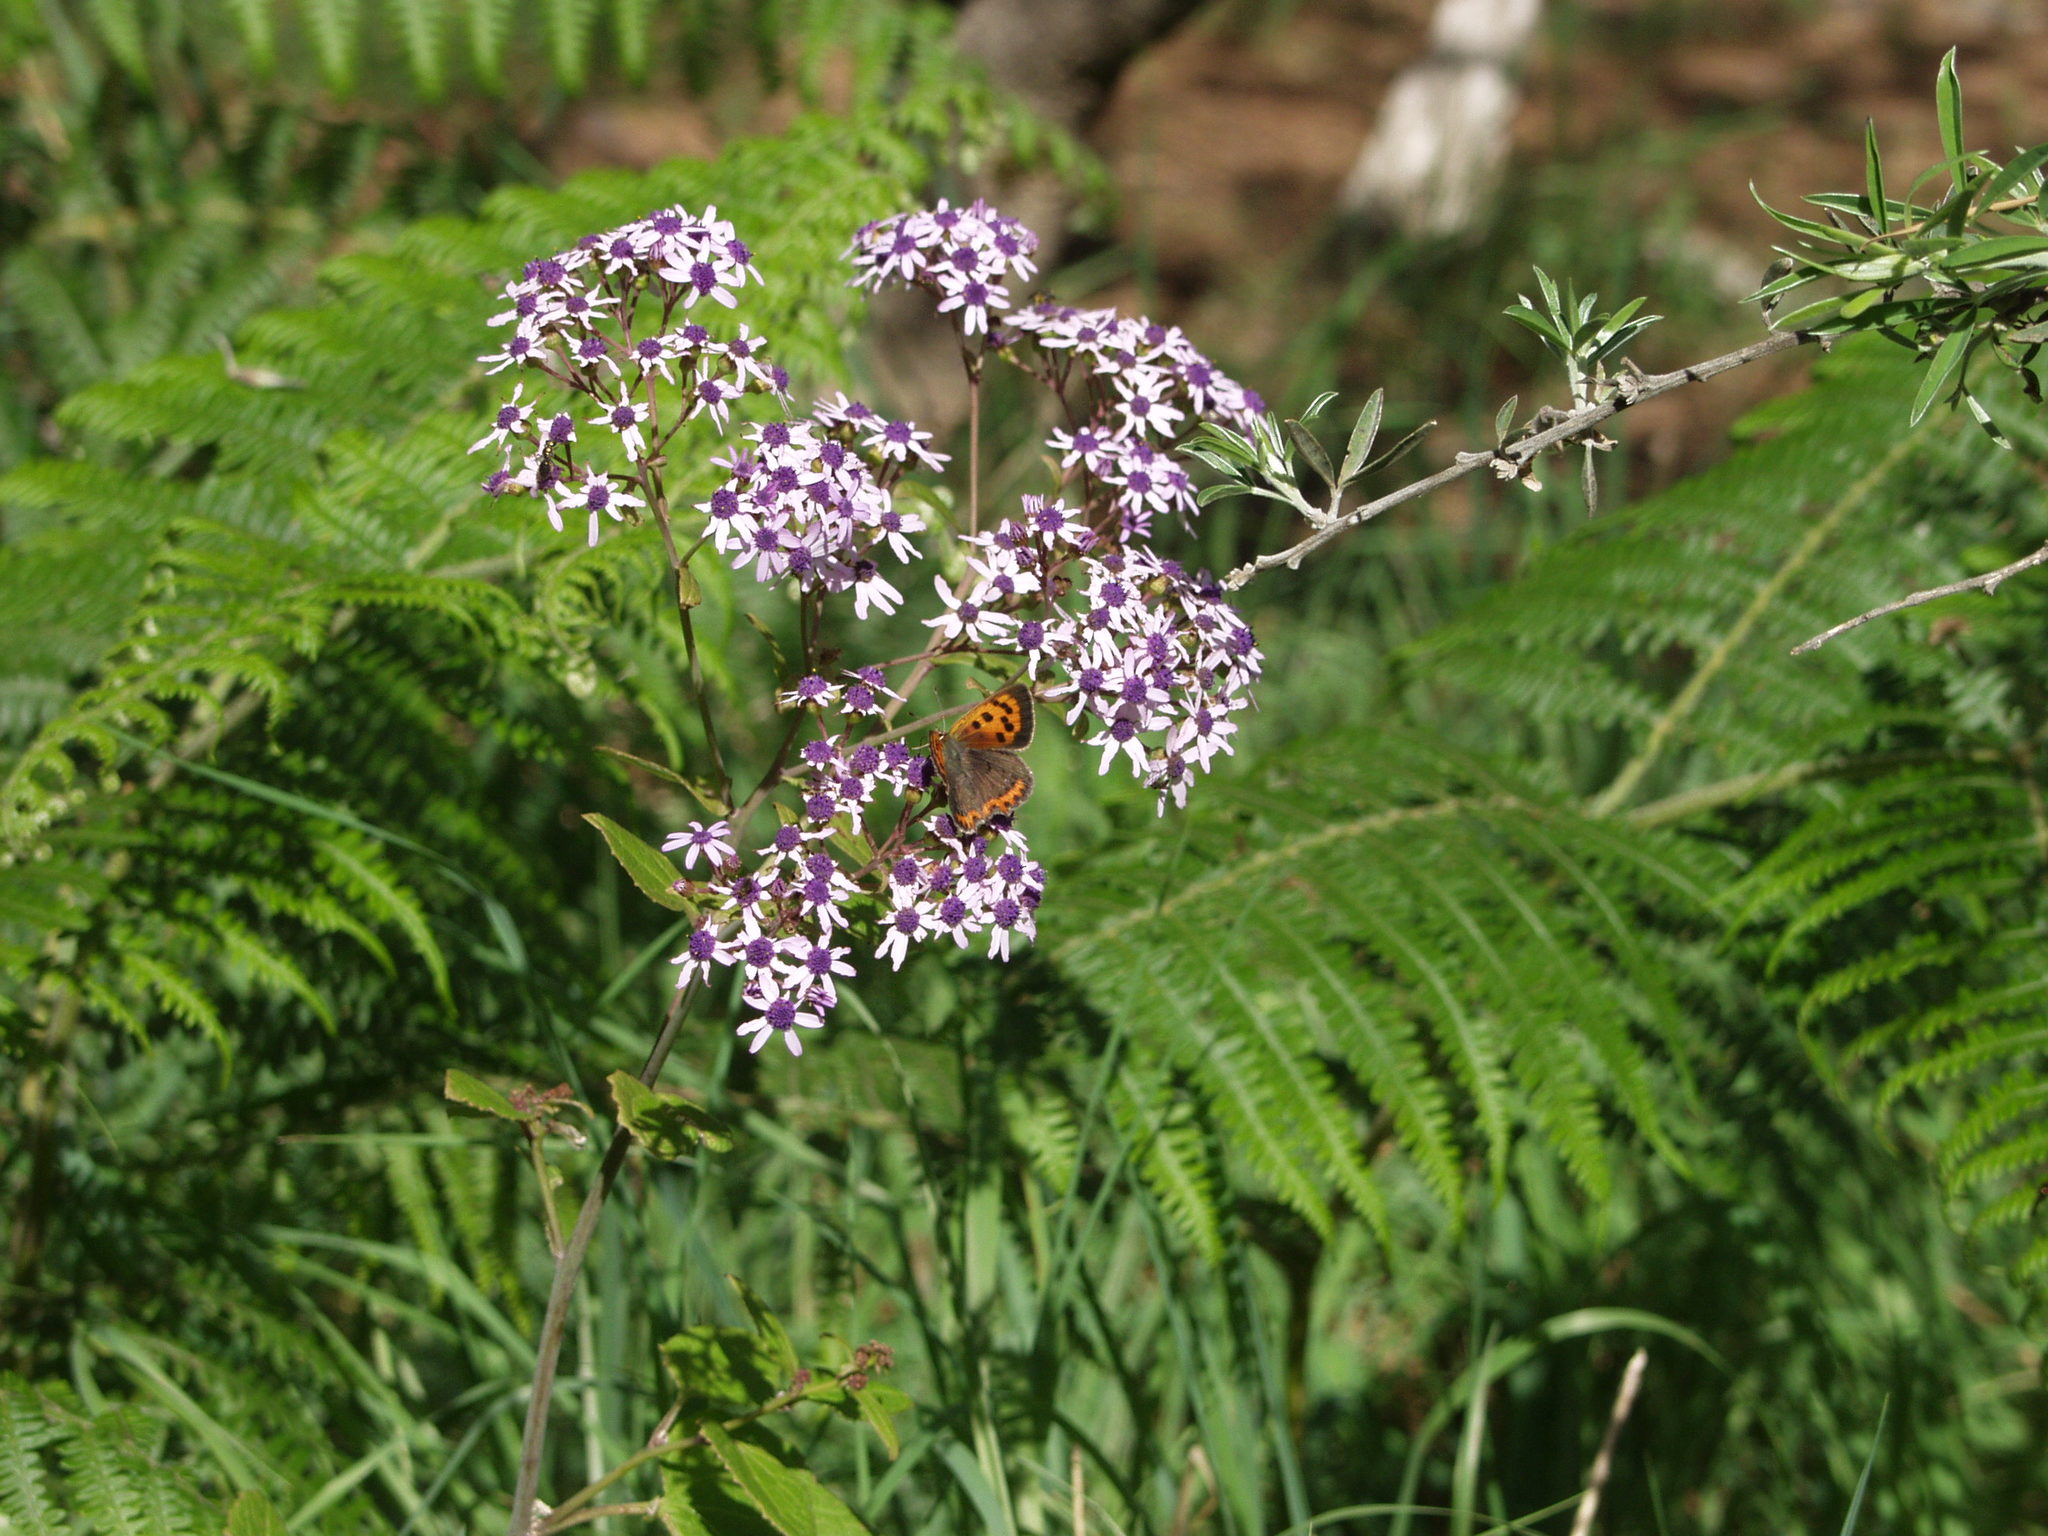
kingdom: Plantae
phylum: Tracheophyta
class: Magnoliopsida
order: Asterales
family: Asteraceae
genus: Pericallis
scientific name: Pericallis papyracea
